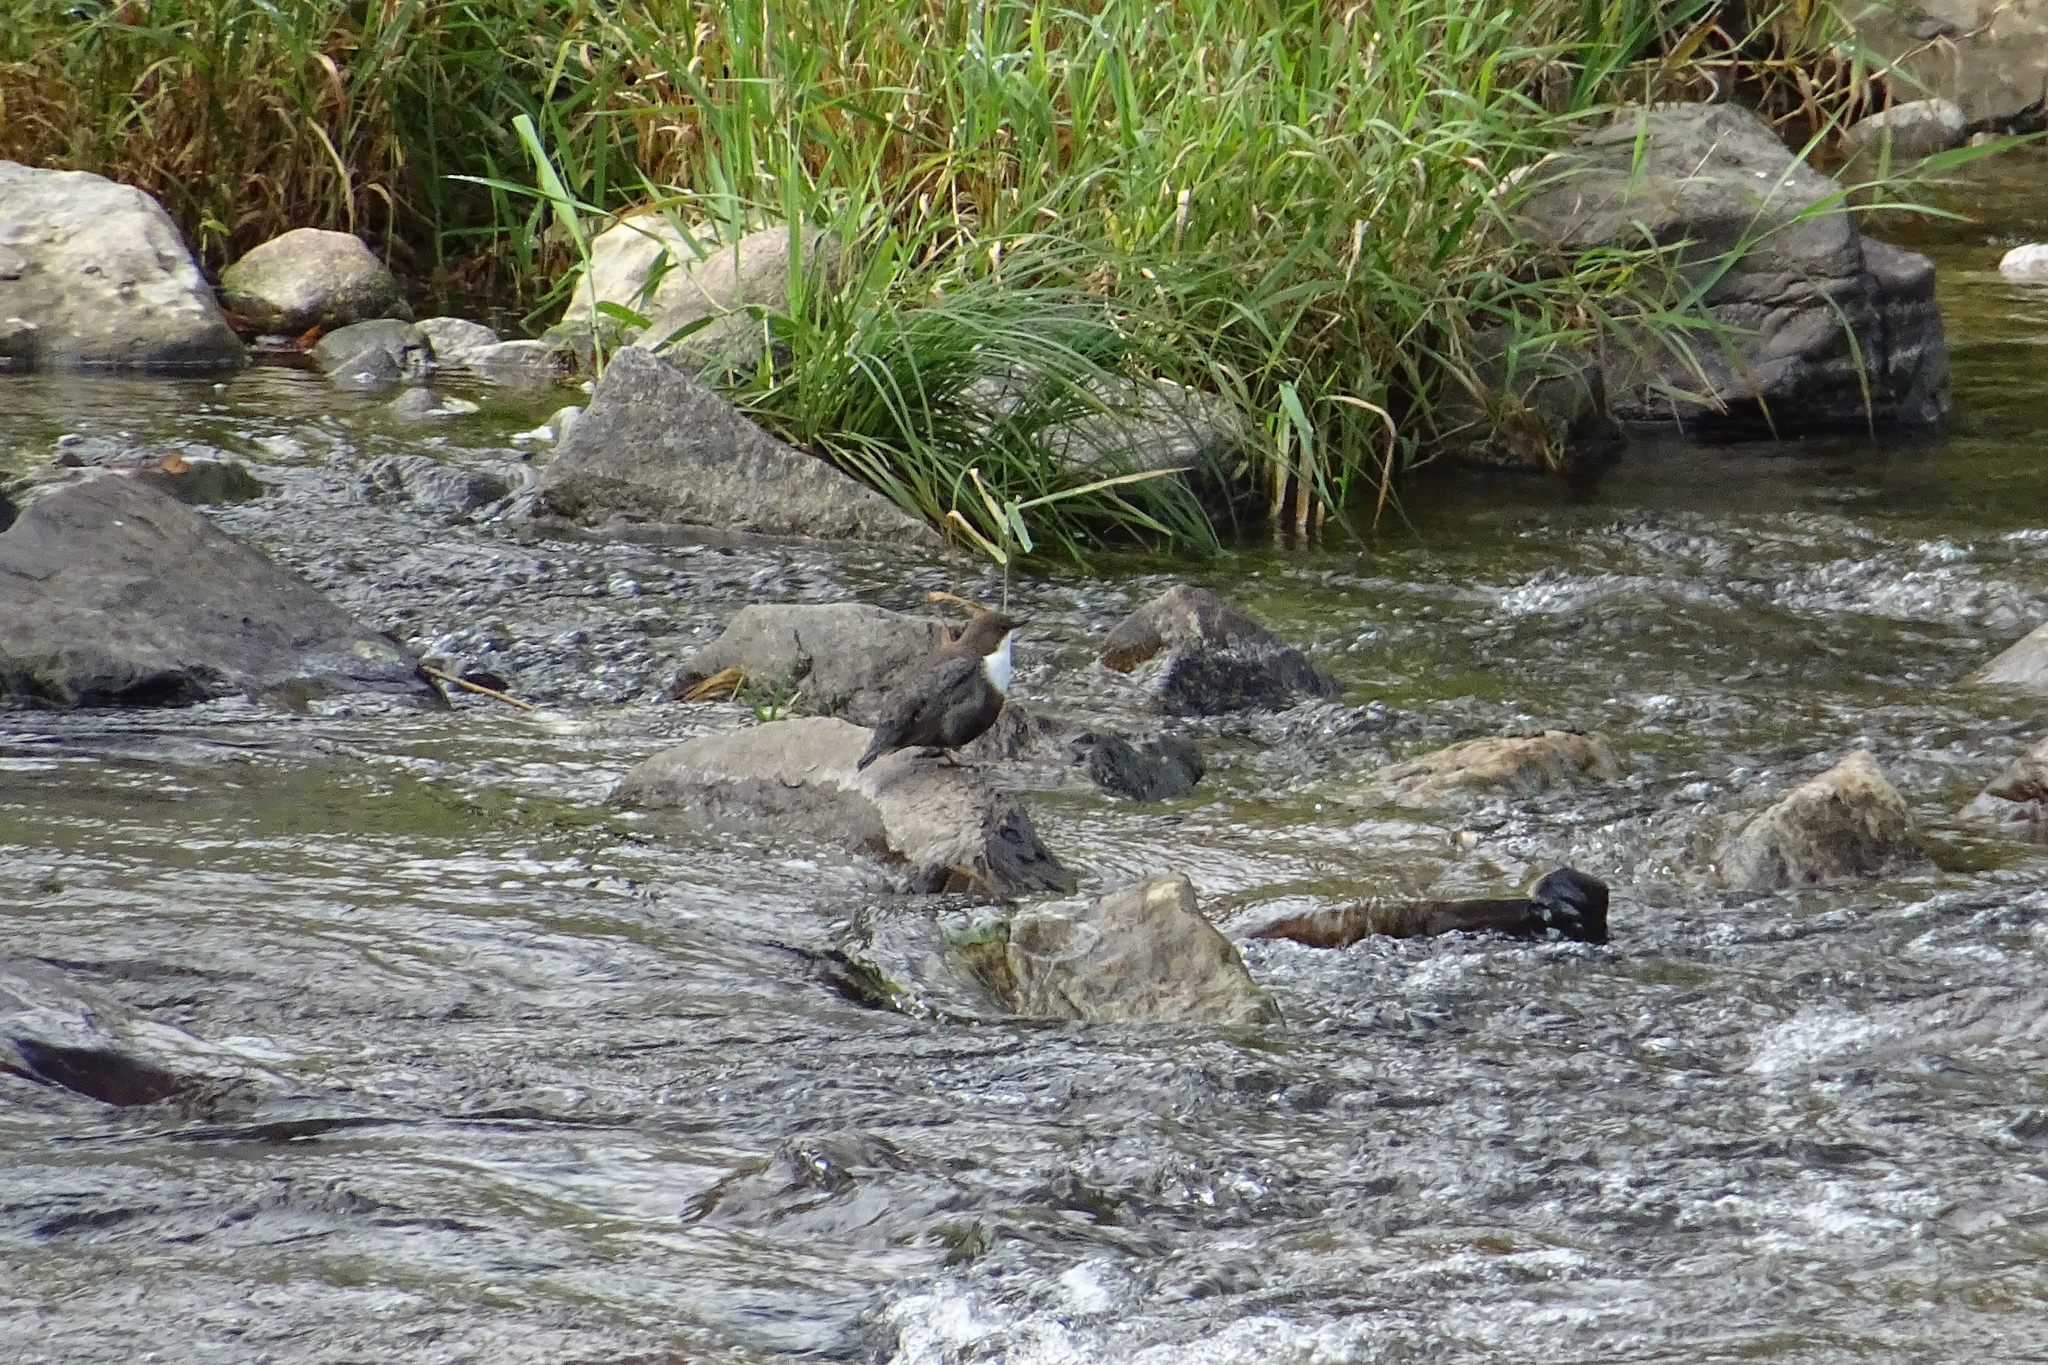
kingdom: Animalia
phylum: Chordata
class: Aves
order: Passeriformes
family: Cinclidae
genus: Cinclus
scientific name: Cinclus cinclus
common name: White-throated dipper
